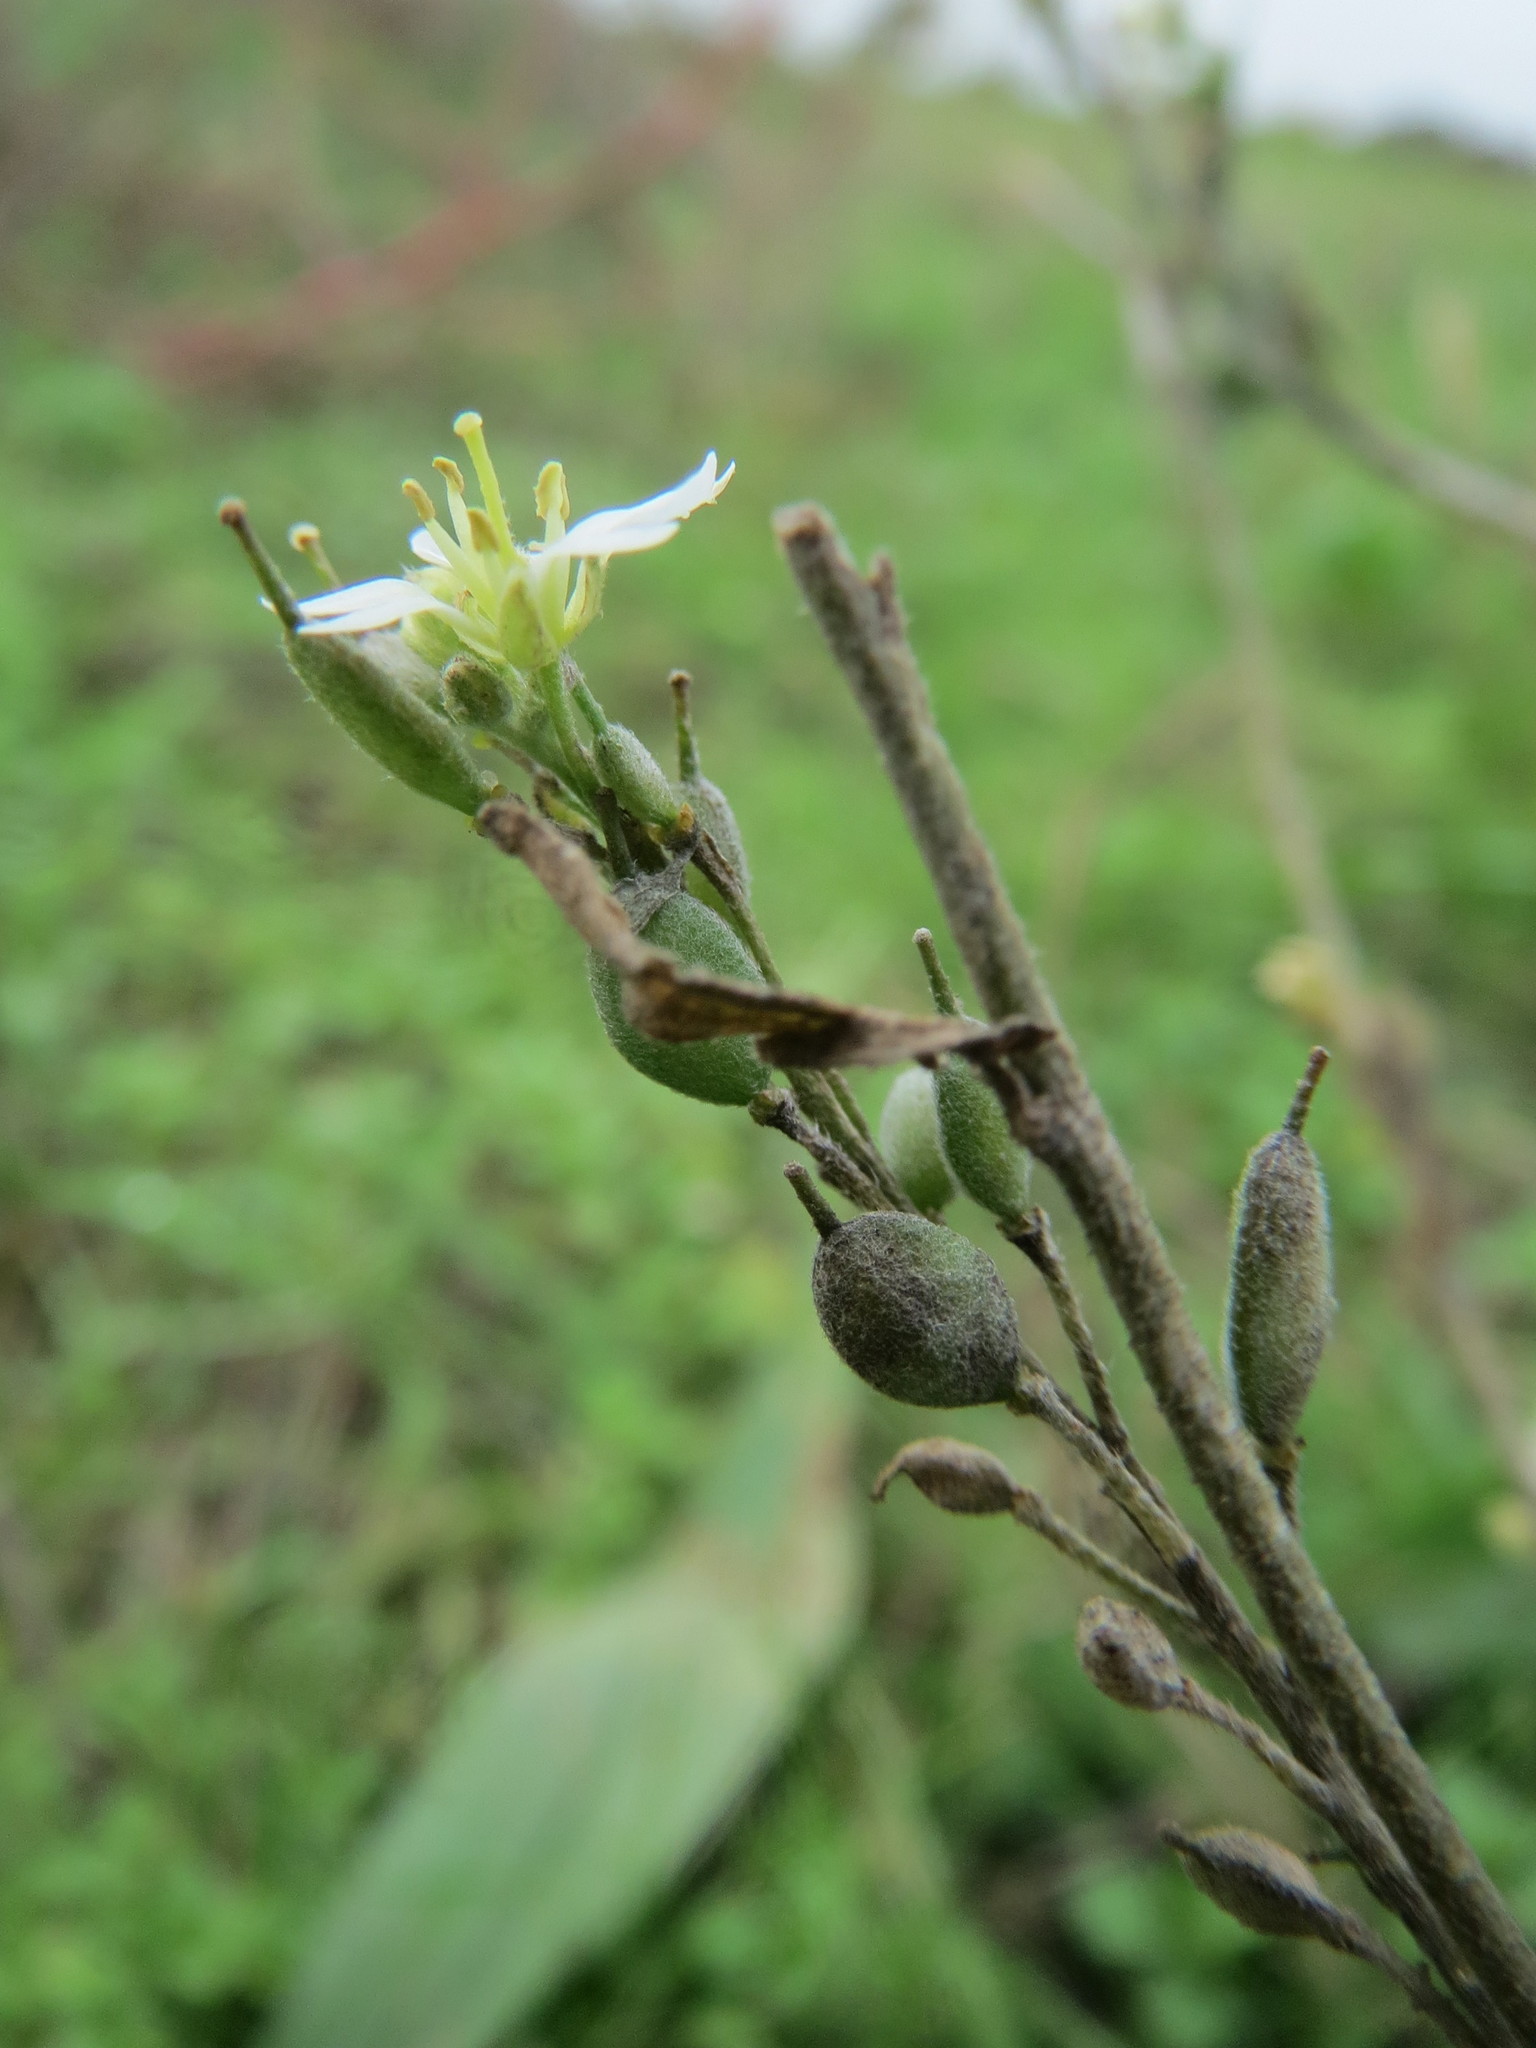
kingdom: Plantae
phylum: Tracheophyta
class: Magnoliopsida
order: Brassicales
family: Brassicaceae
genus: Berteroa
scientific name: Berteroa incana
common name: Hoary alison
